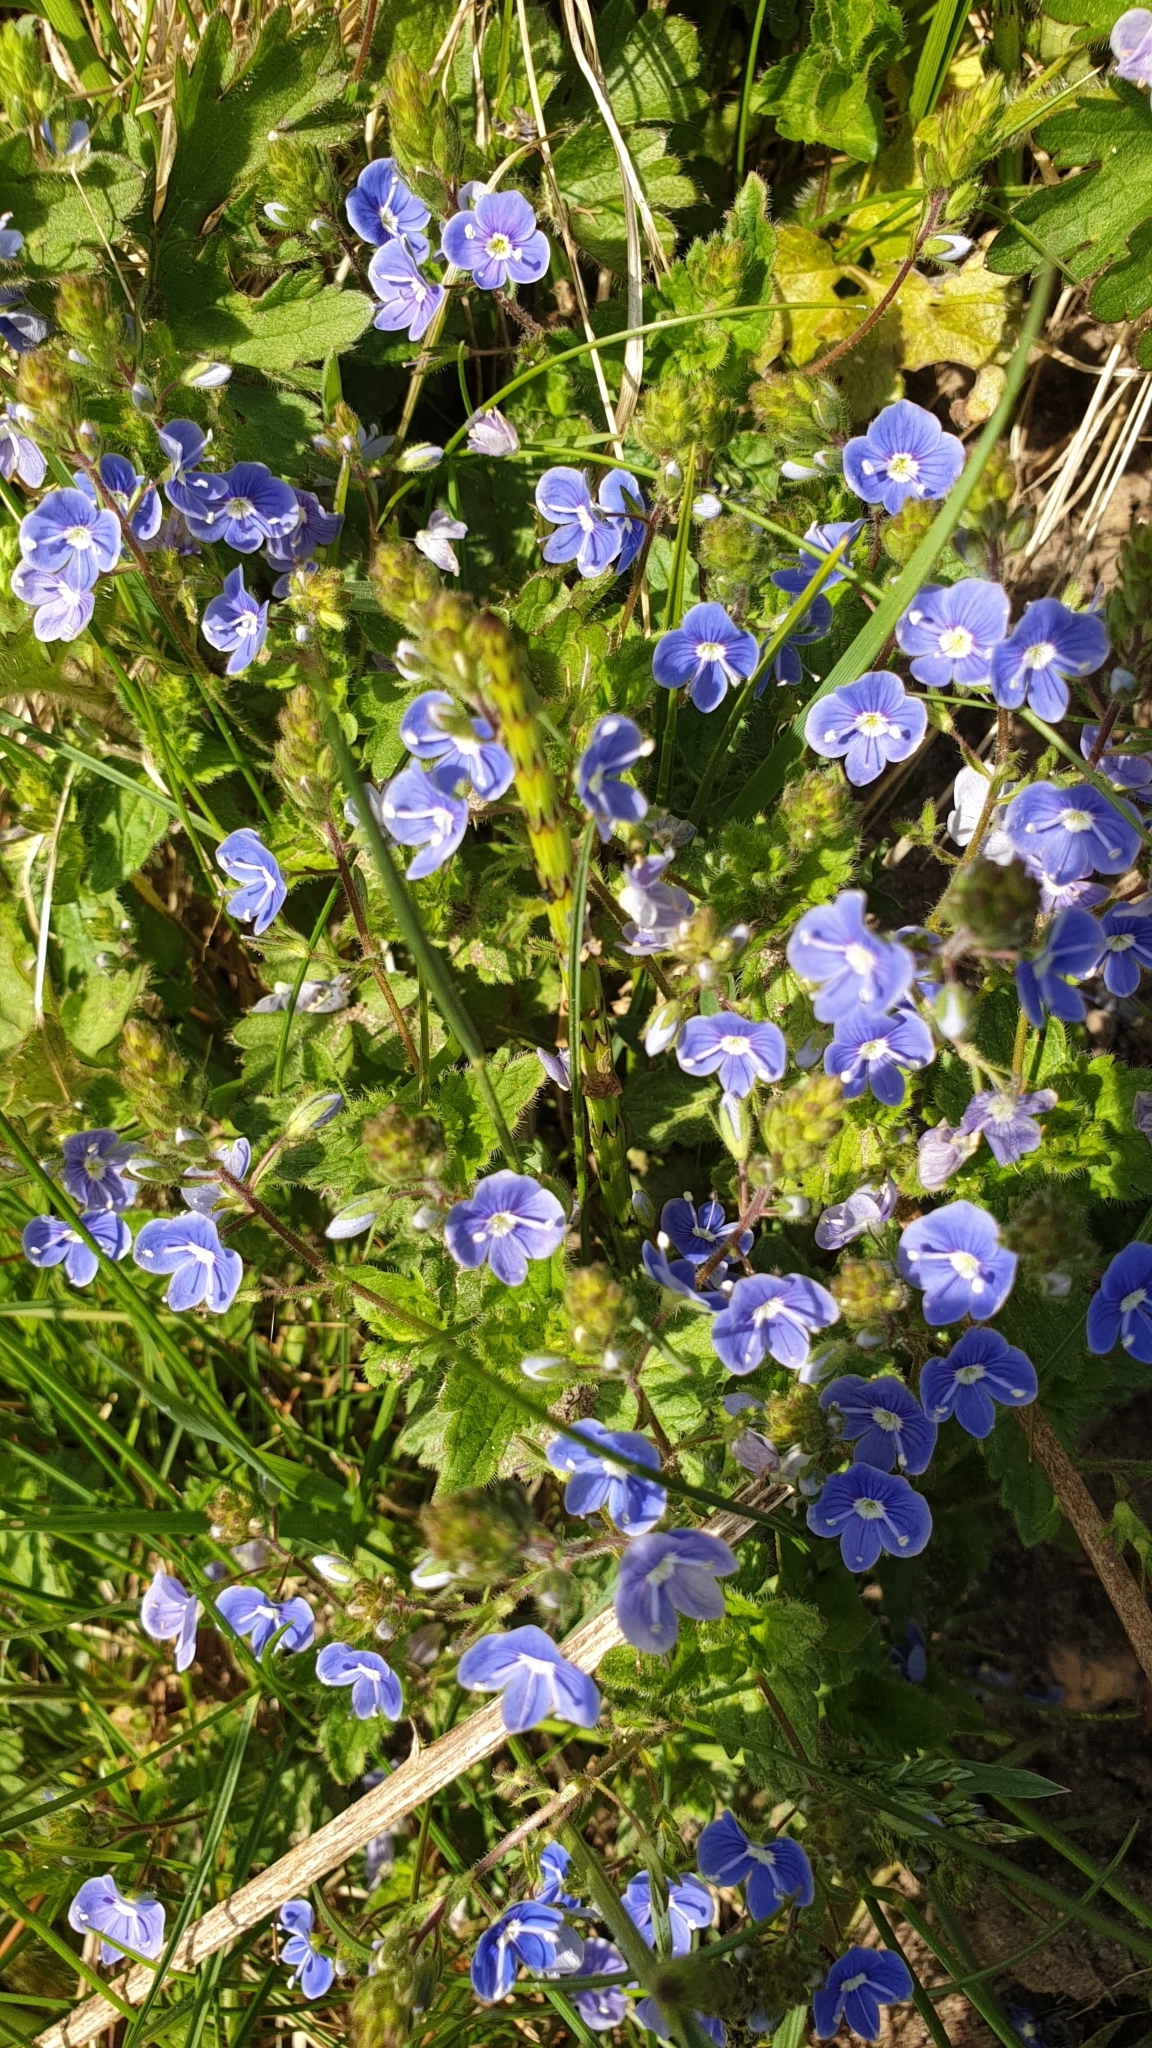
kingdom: Plantae
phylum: Tracheophyta
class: Magnoliopsida
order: Lamiales
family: Plantaginaceae
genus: Veronica
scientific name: Veronica chamaedrys
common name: Germander speedwell
